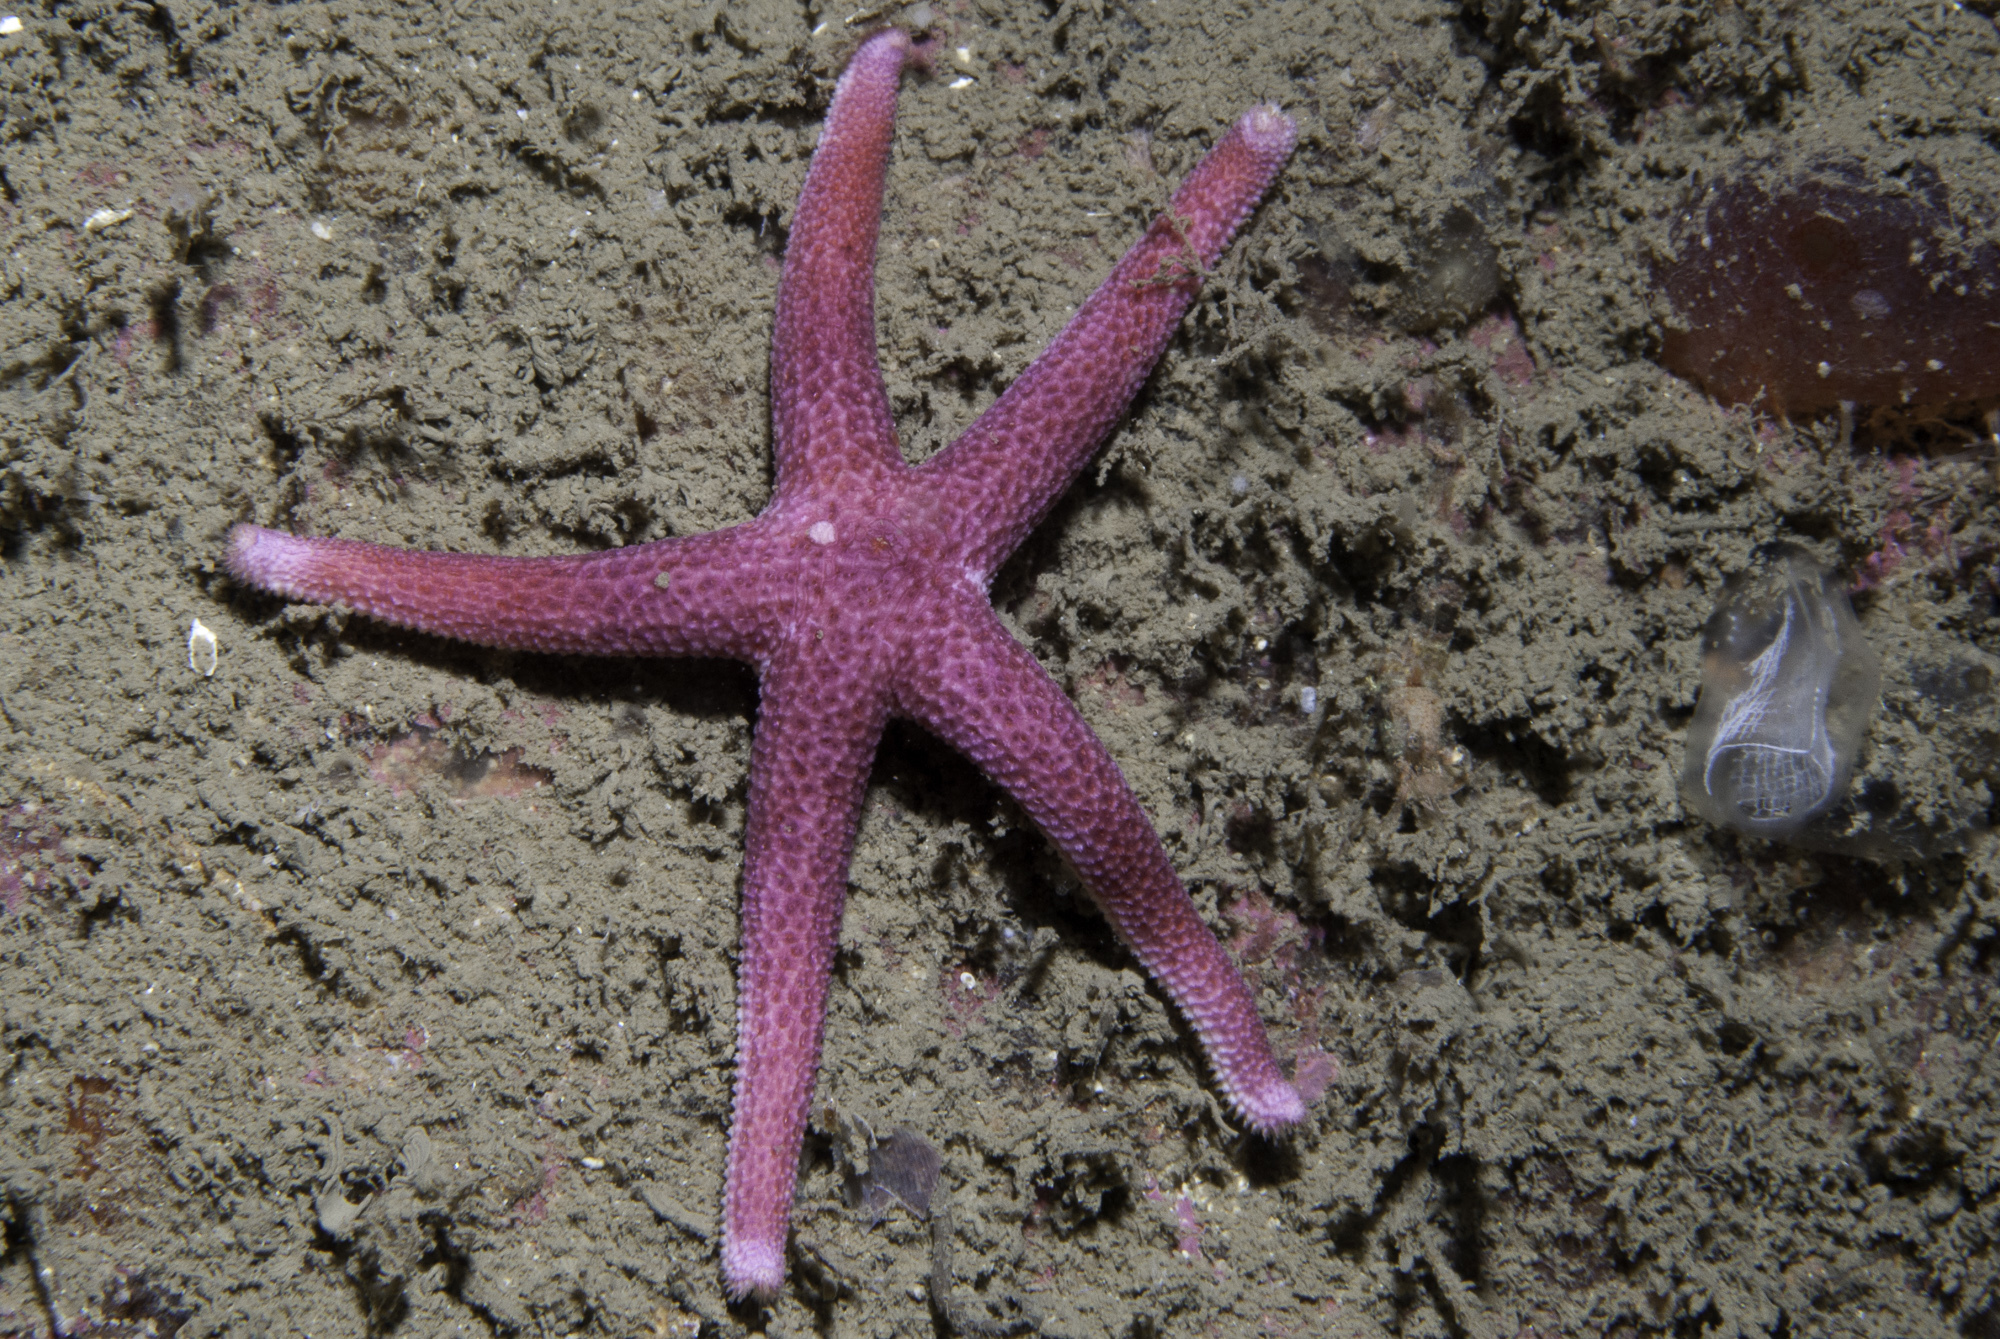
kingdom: Animalia
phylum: Echinodermata
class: Asteroidea
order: Spinulosida
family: Echinasteridae
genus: Henricia
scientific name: Henricia sanguinolenta
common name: Blood star
